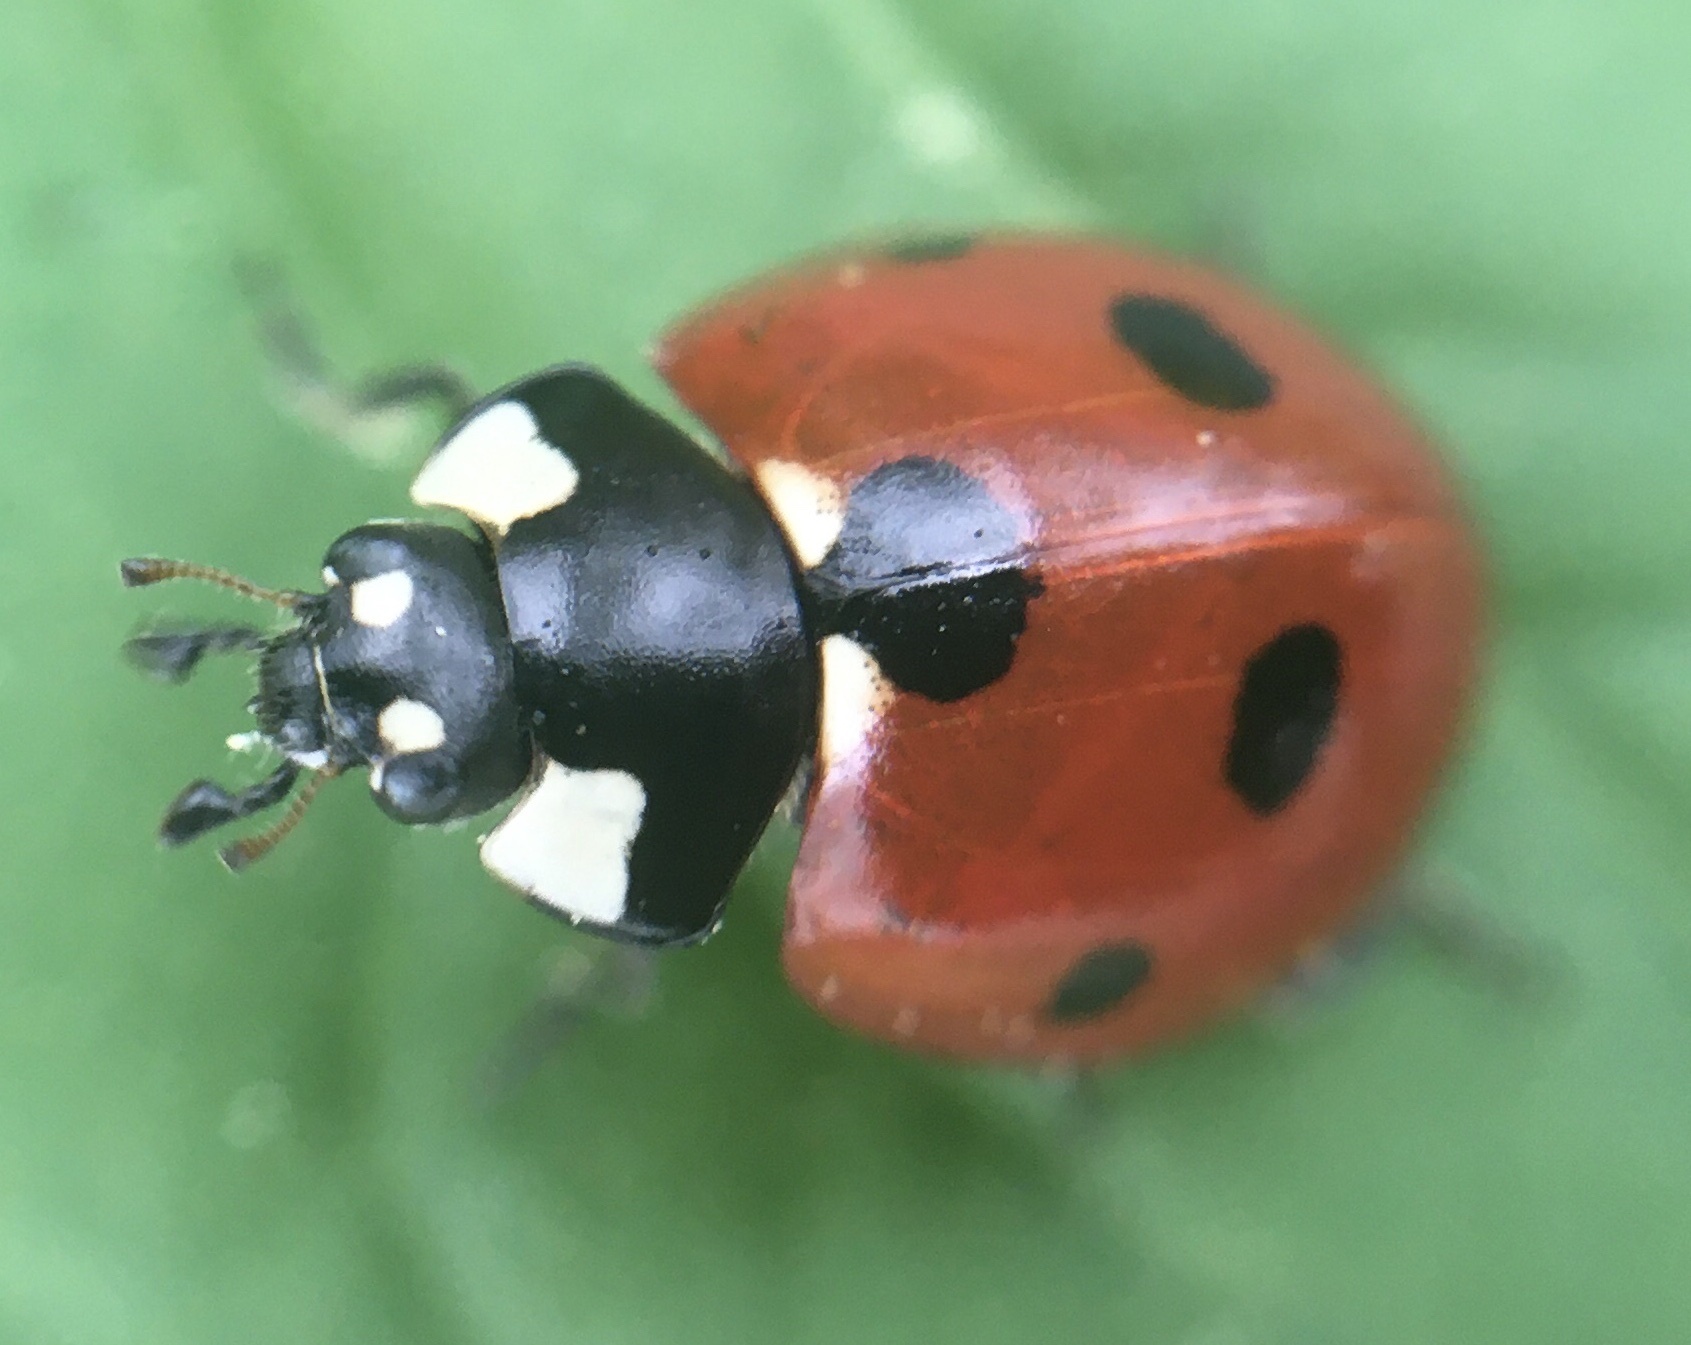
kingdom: Animalia
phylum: Arthropoda
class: Insecta
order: Coleoptera
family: Coccinellidae
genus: Coccinella
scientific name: Coccinella septempunctata
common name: Sevenspotted lady beetle
